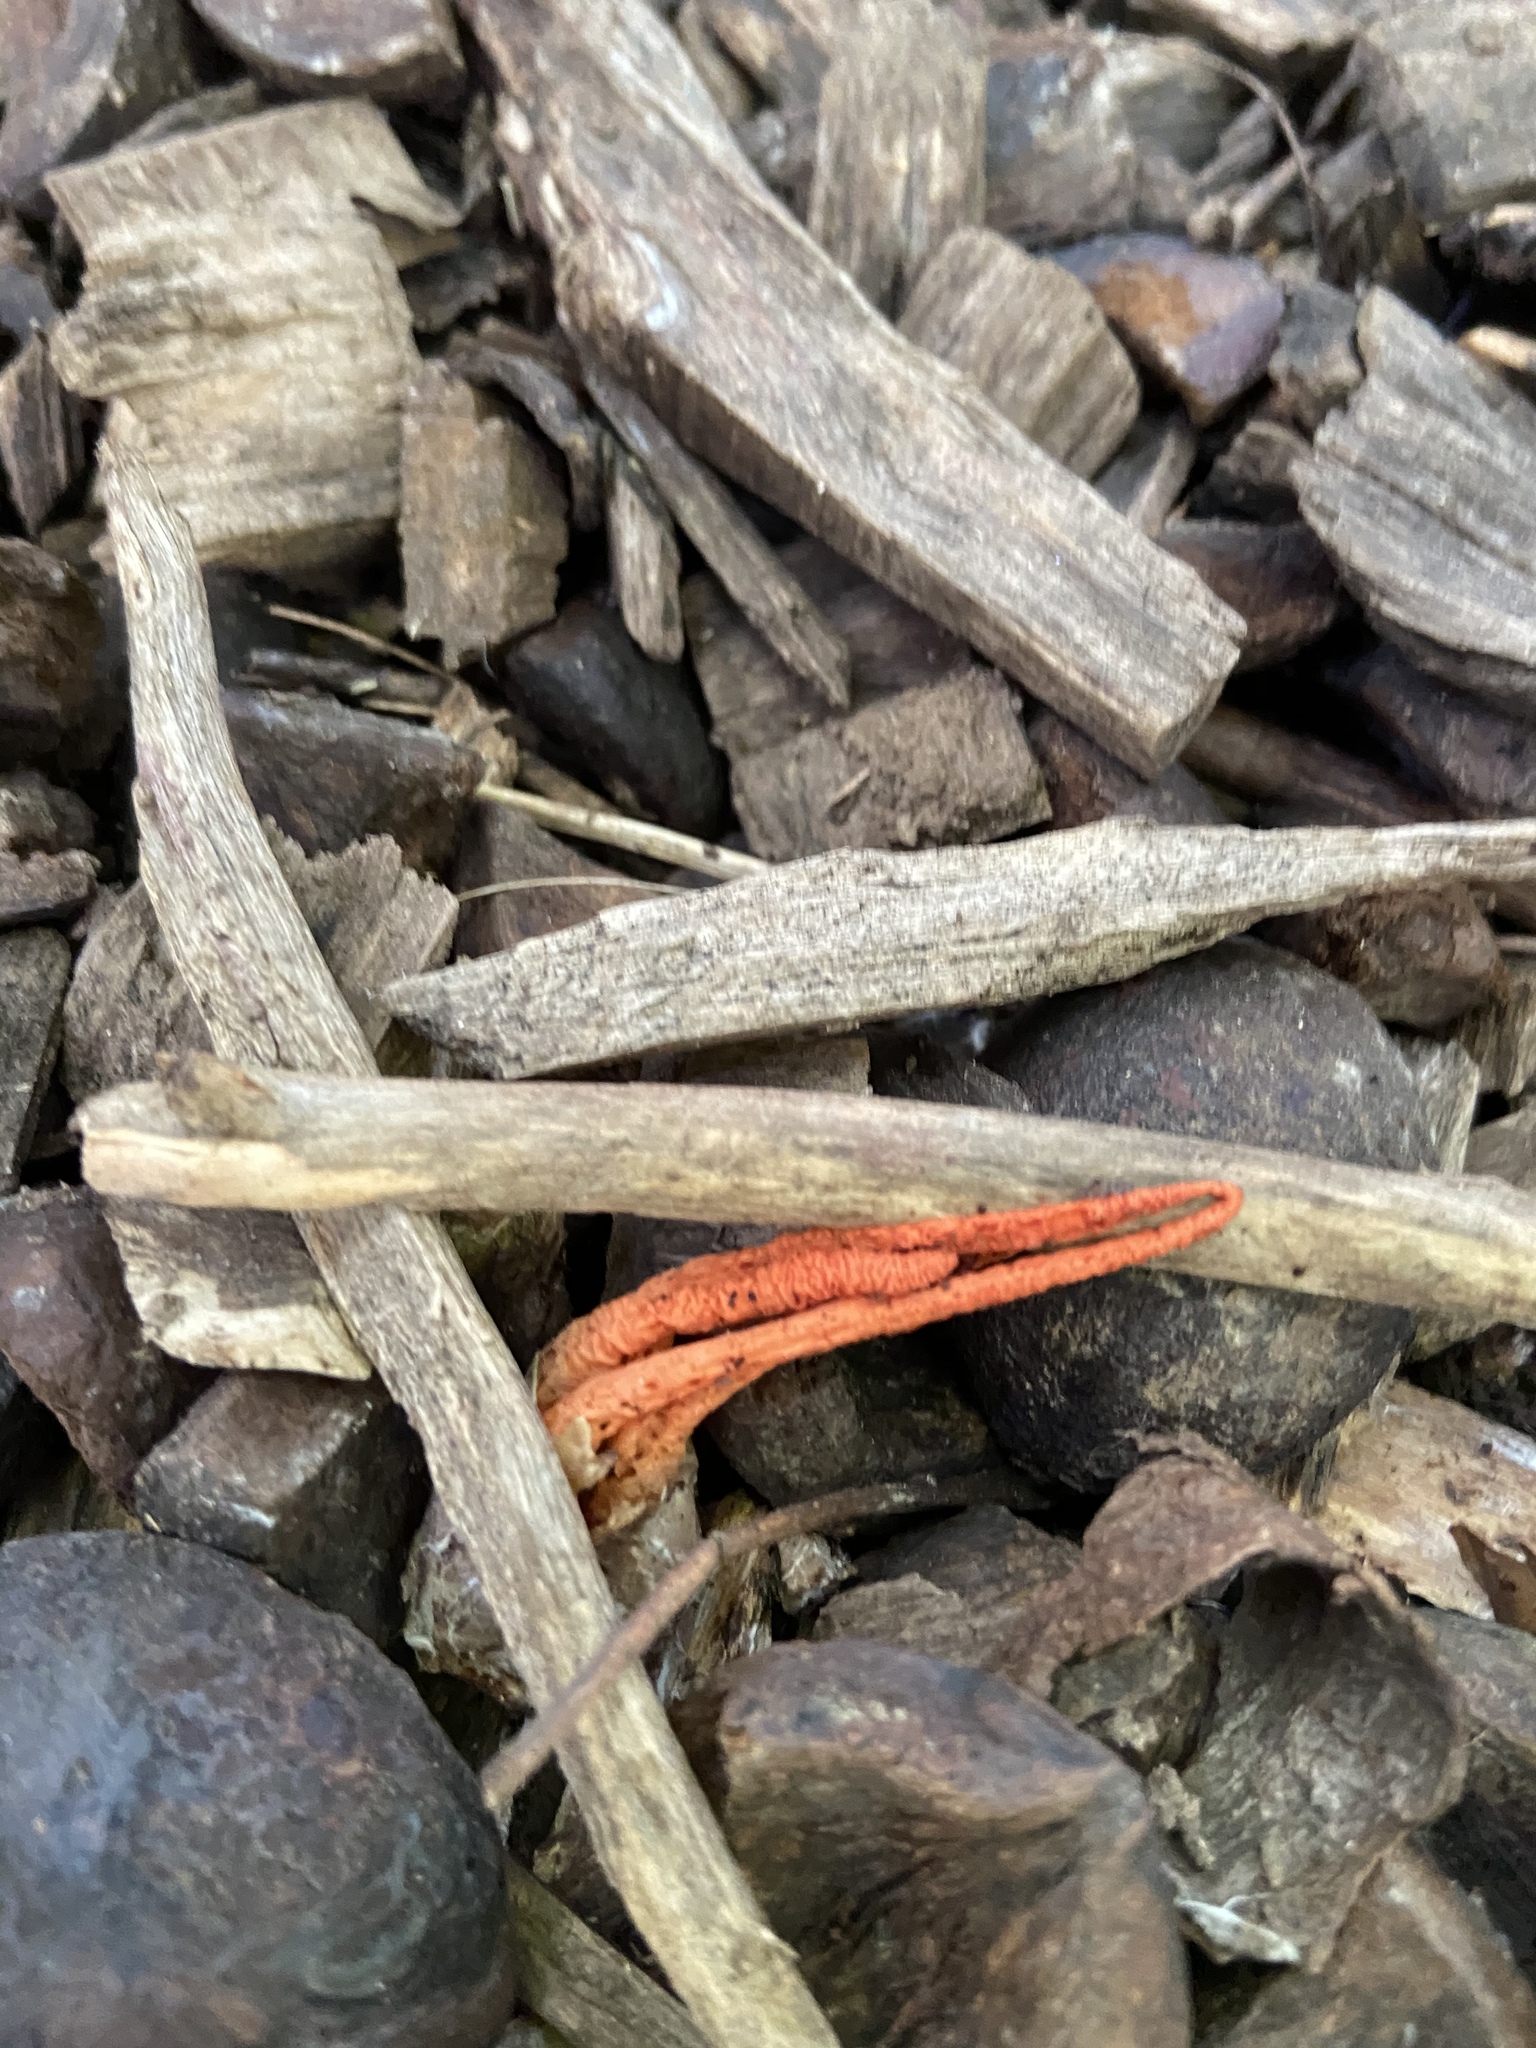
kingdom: Fungi
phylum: Basidiomycota
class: Agaricomycetes
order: Phallales
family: Phallaceae
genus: Pseudocolus
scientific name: Pseudocolus fusiformis
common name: Stinky squid
